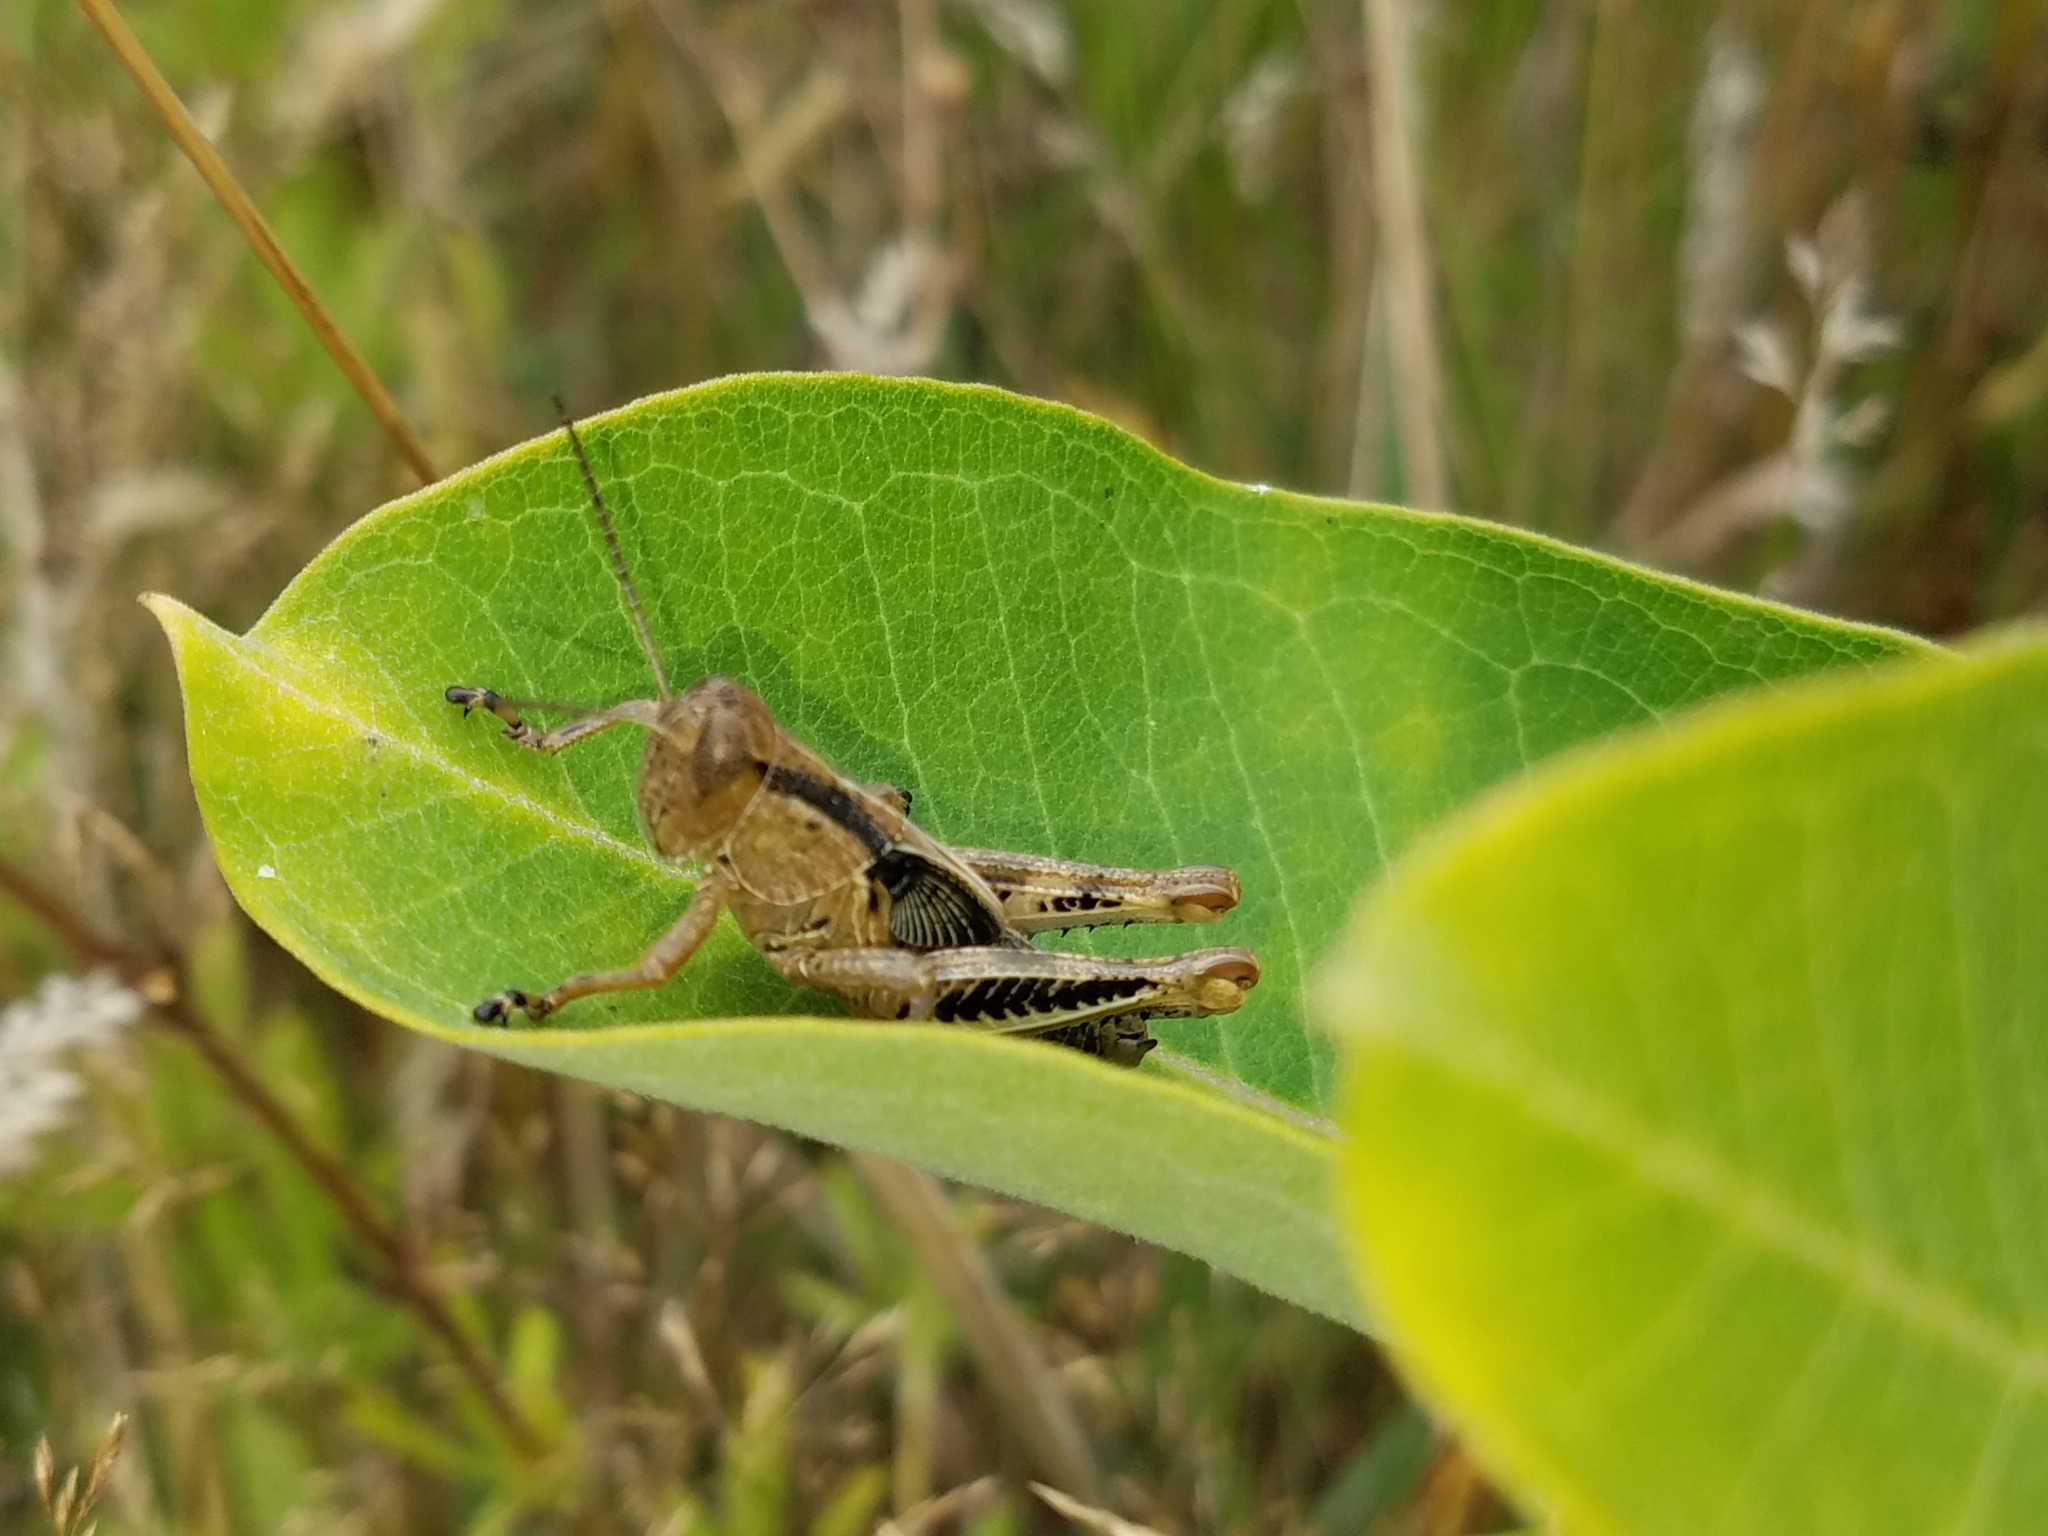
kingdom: Animalia
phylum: Arthropoda
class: Insecta
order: Orthoptera
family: Acrididae
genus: Melanoplus
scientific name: Melanoplus differentialis
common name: Differential grasshopper
